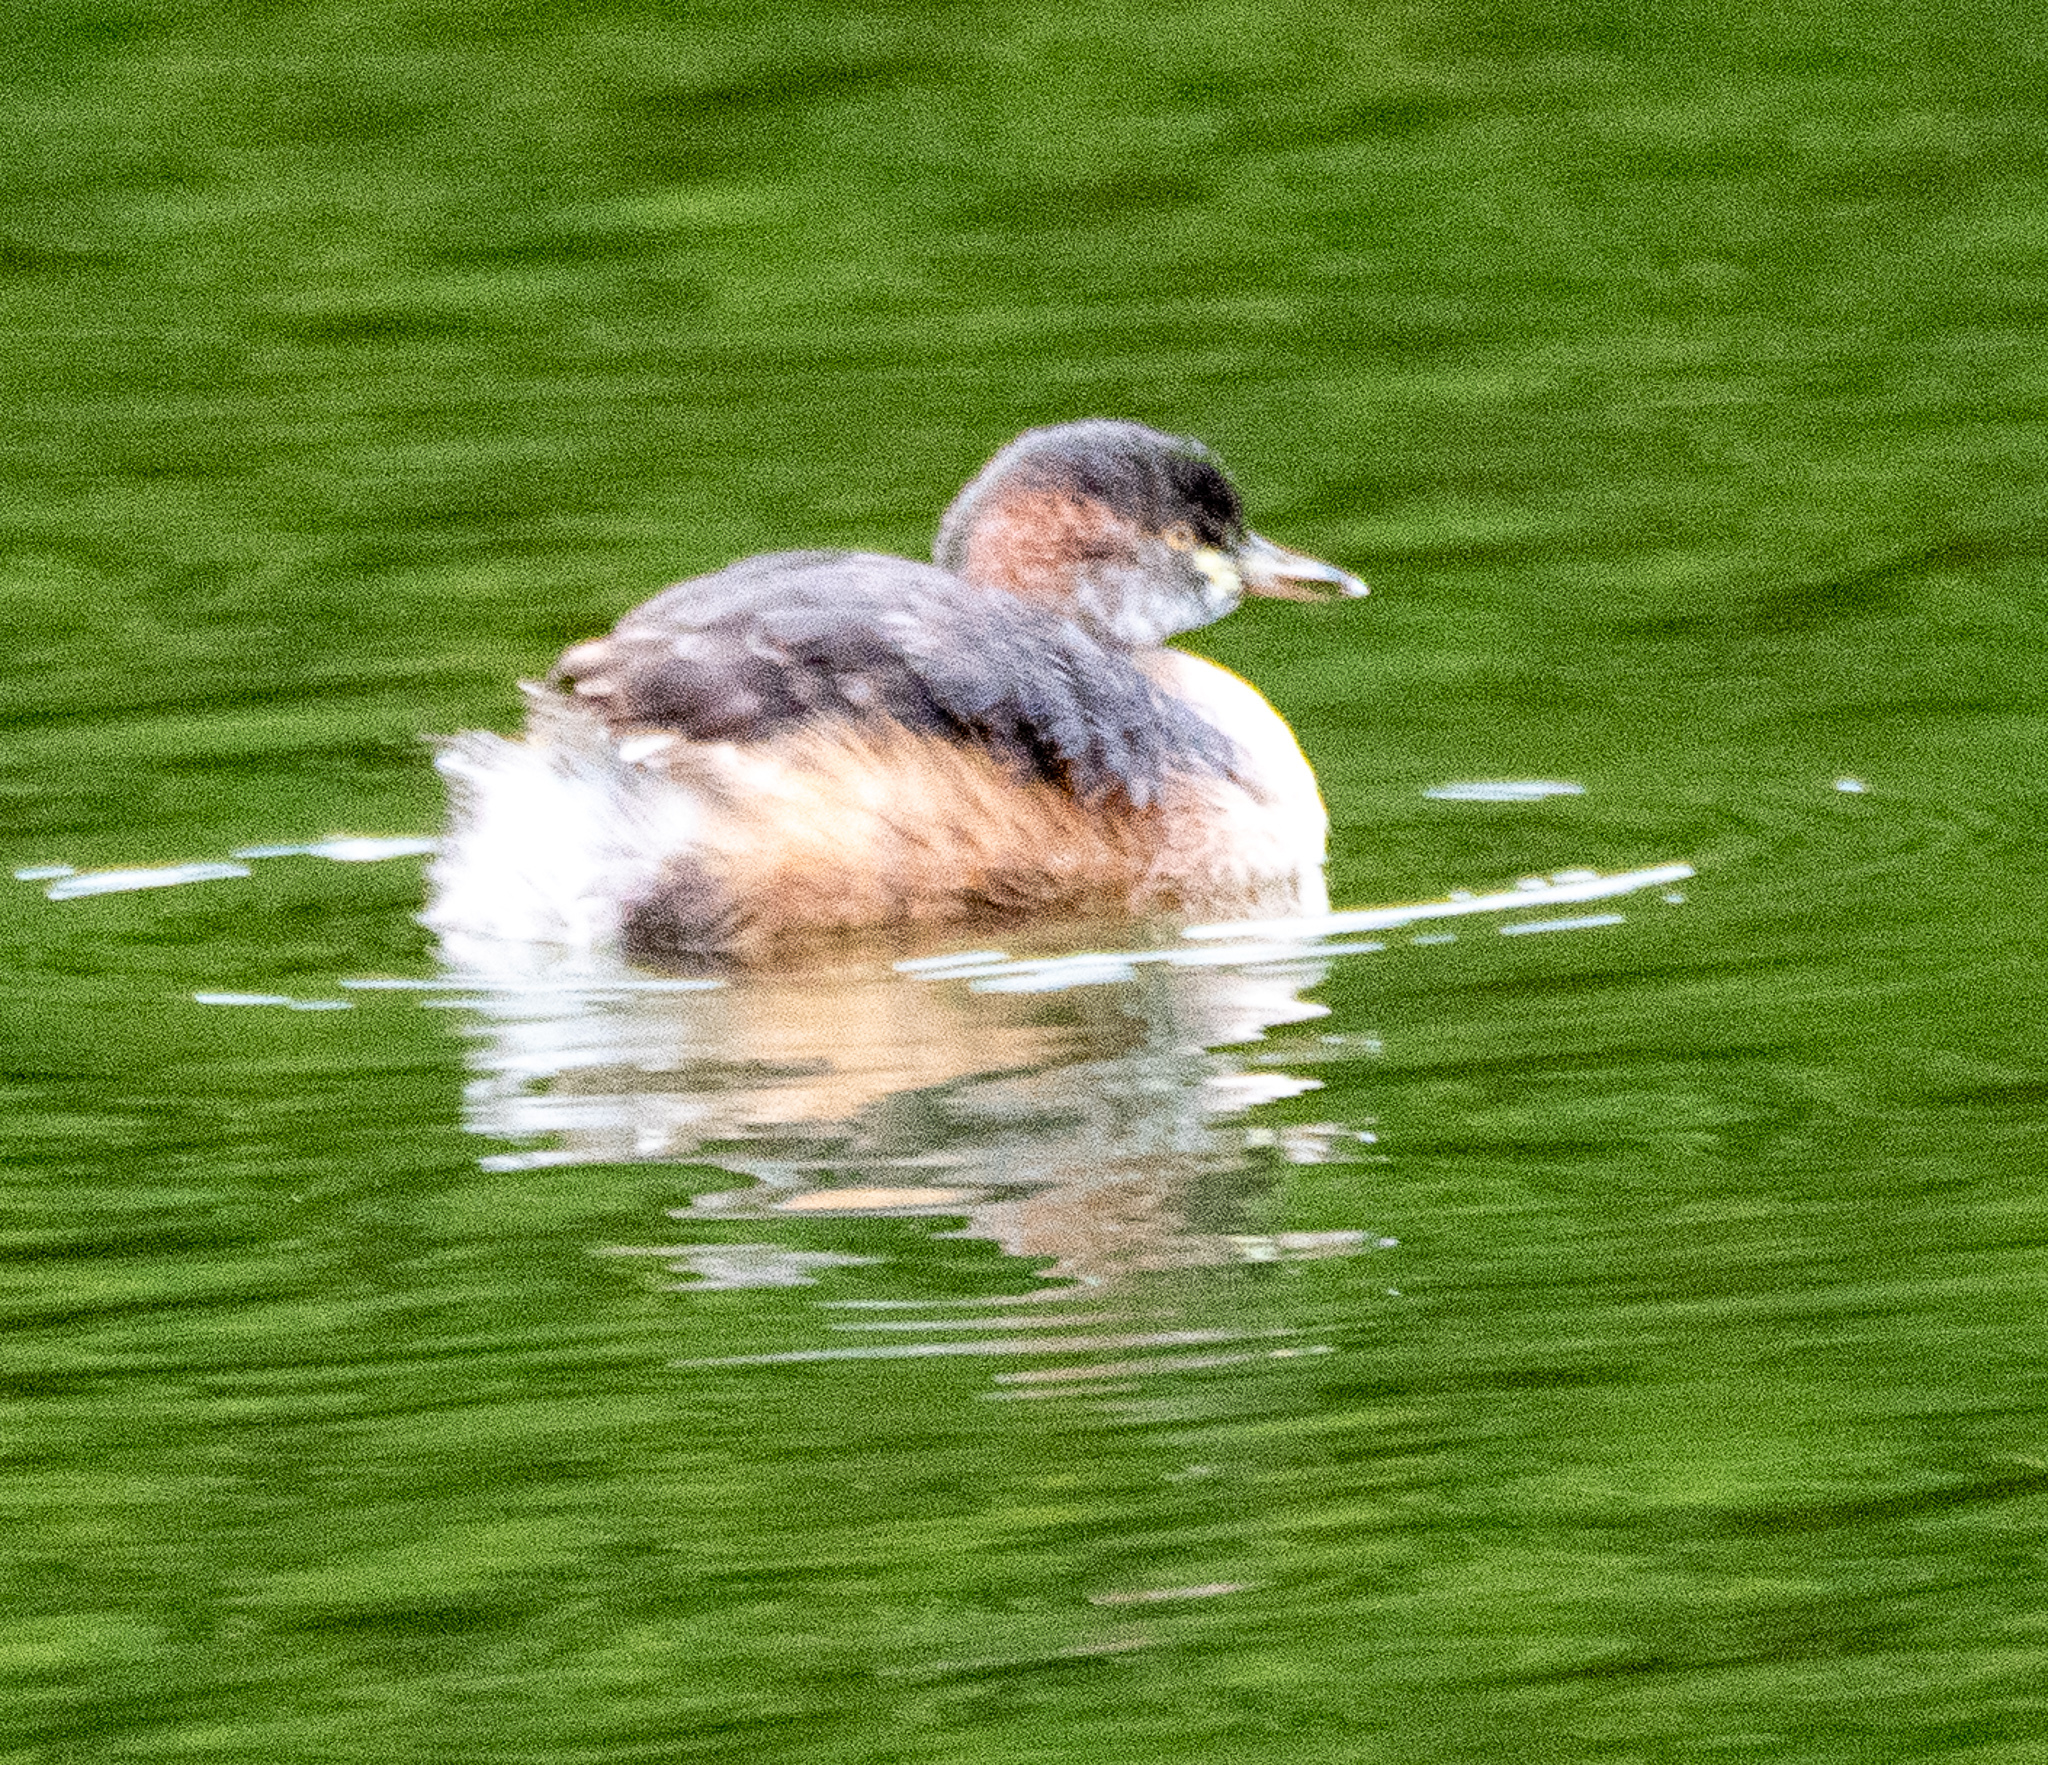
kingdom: Animalia
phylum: Chordata
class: Aves
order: Podicipediformes
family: Podicipedidae
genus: Tachybaptus
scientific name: Tachybaptus novaehollandiae
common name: Australasian grebe
